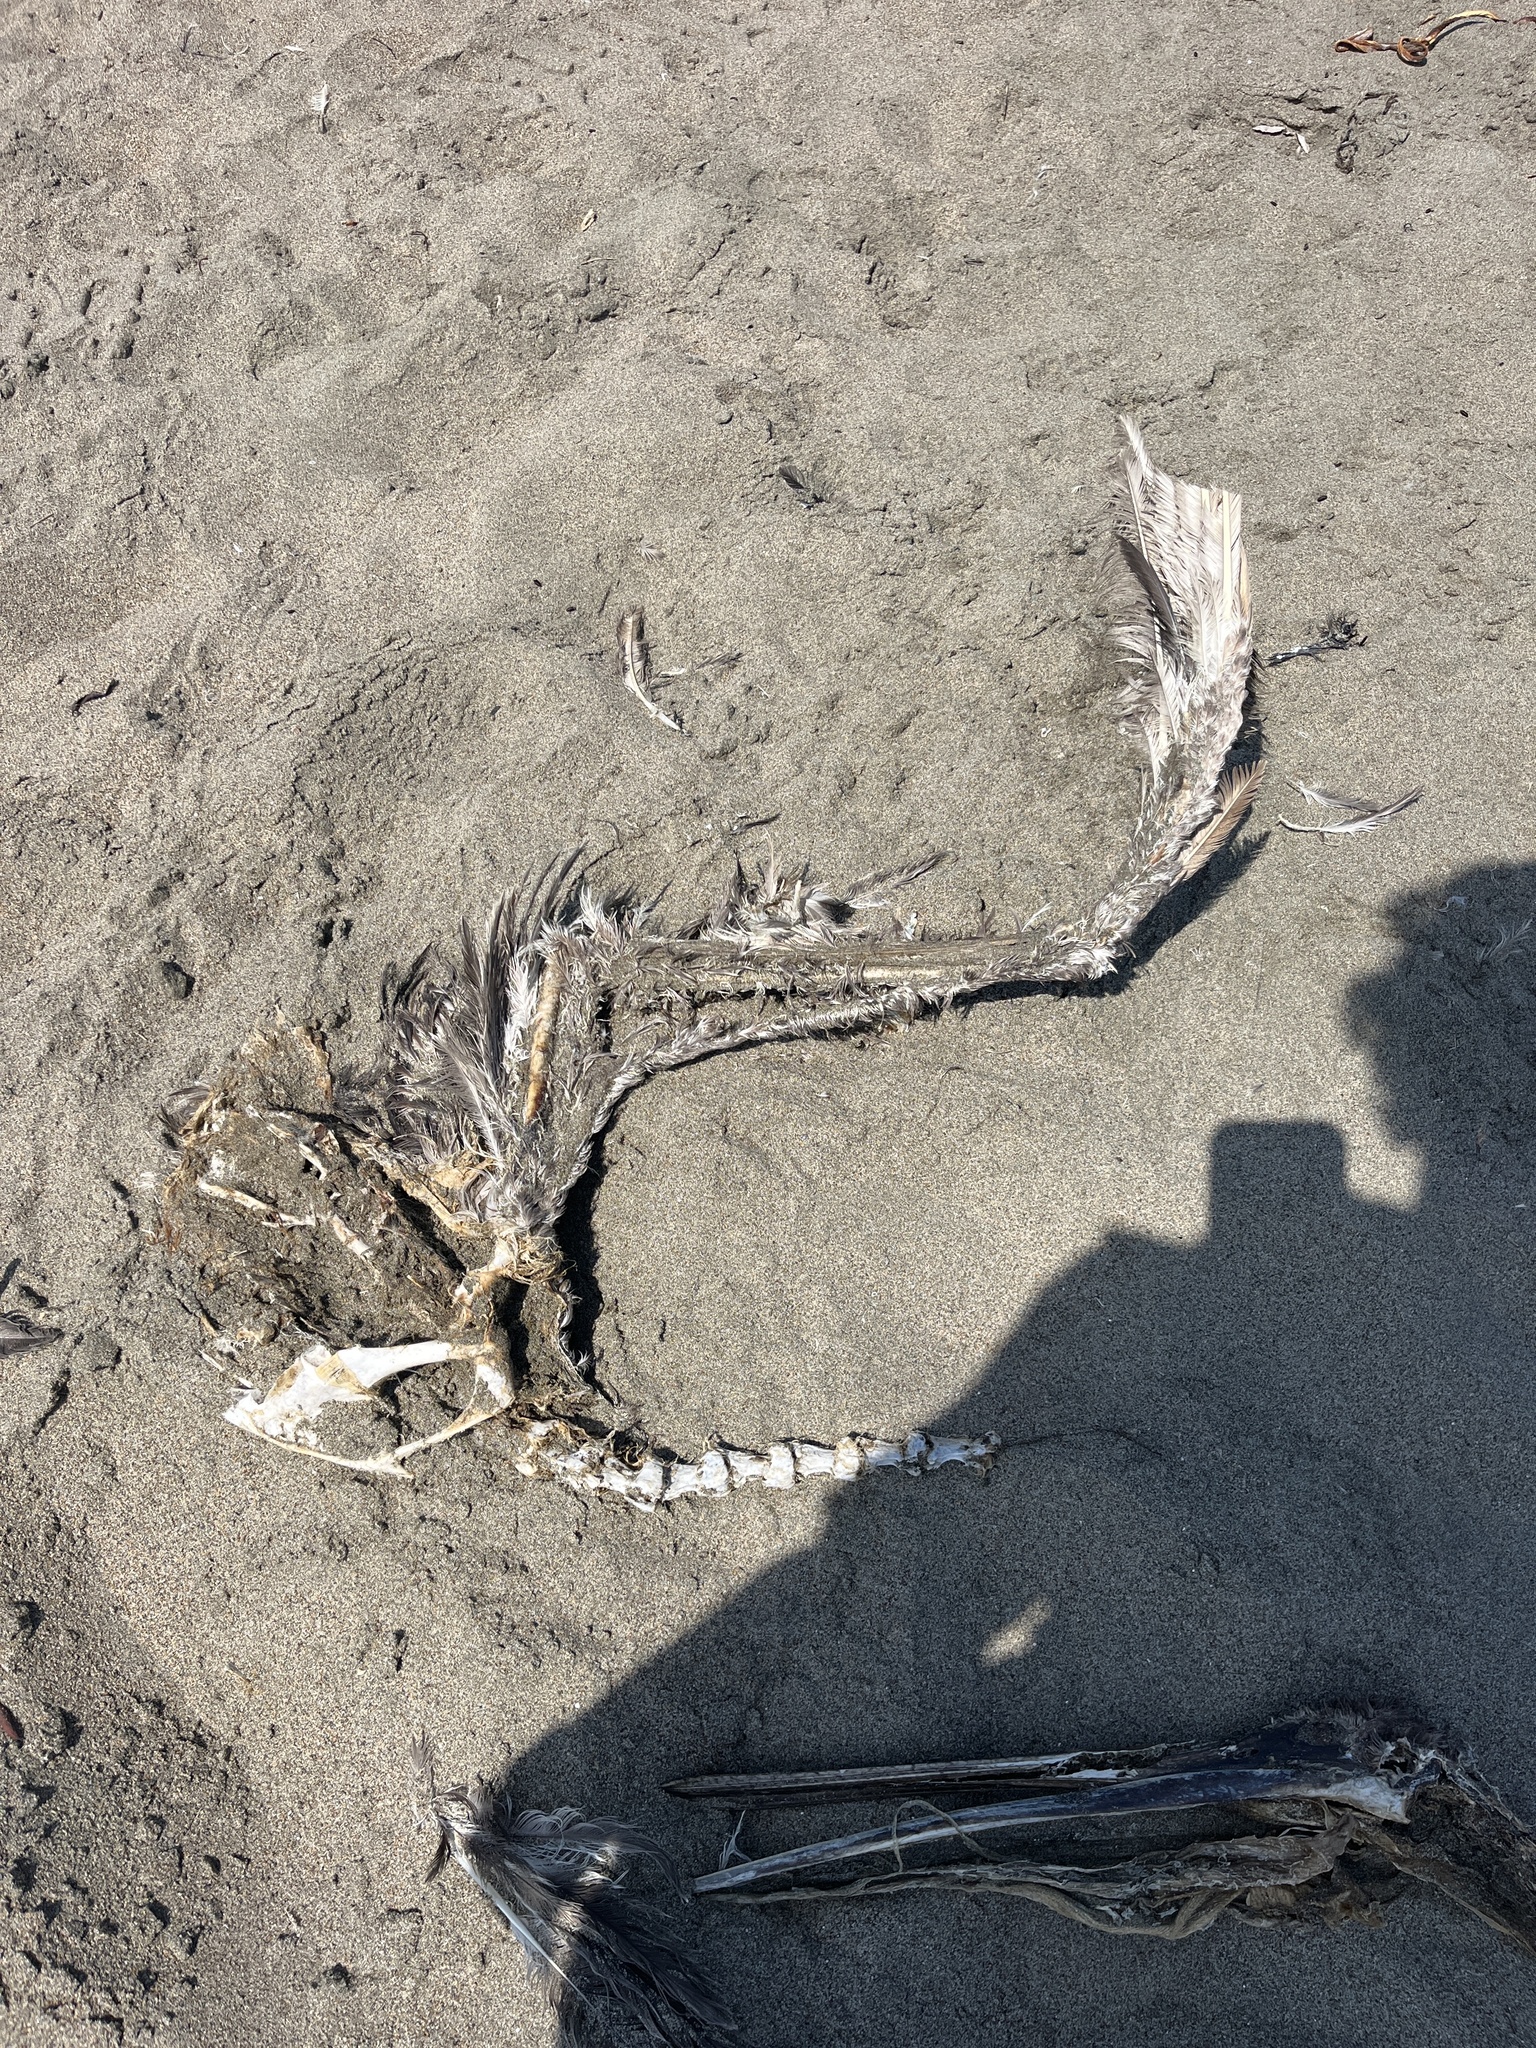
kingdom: Animalia
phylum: Chordata
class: Aves
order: Pelecaniformes
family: Pelecanidae
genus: Pelecanus
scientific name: Pelecanus occidentalis
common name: Brown pelican
